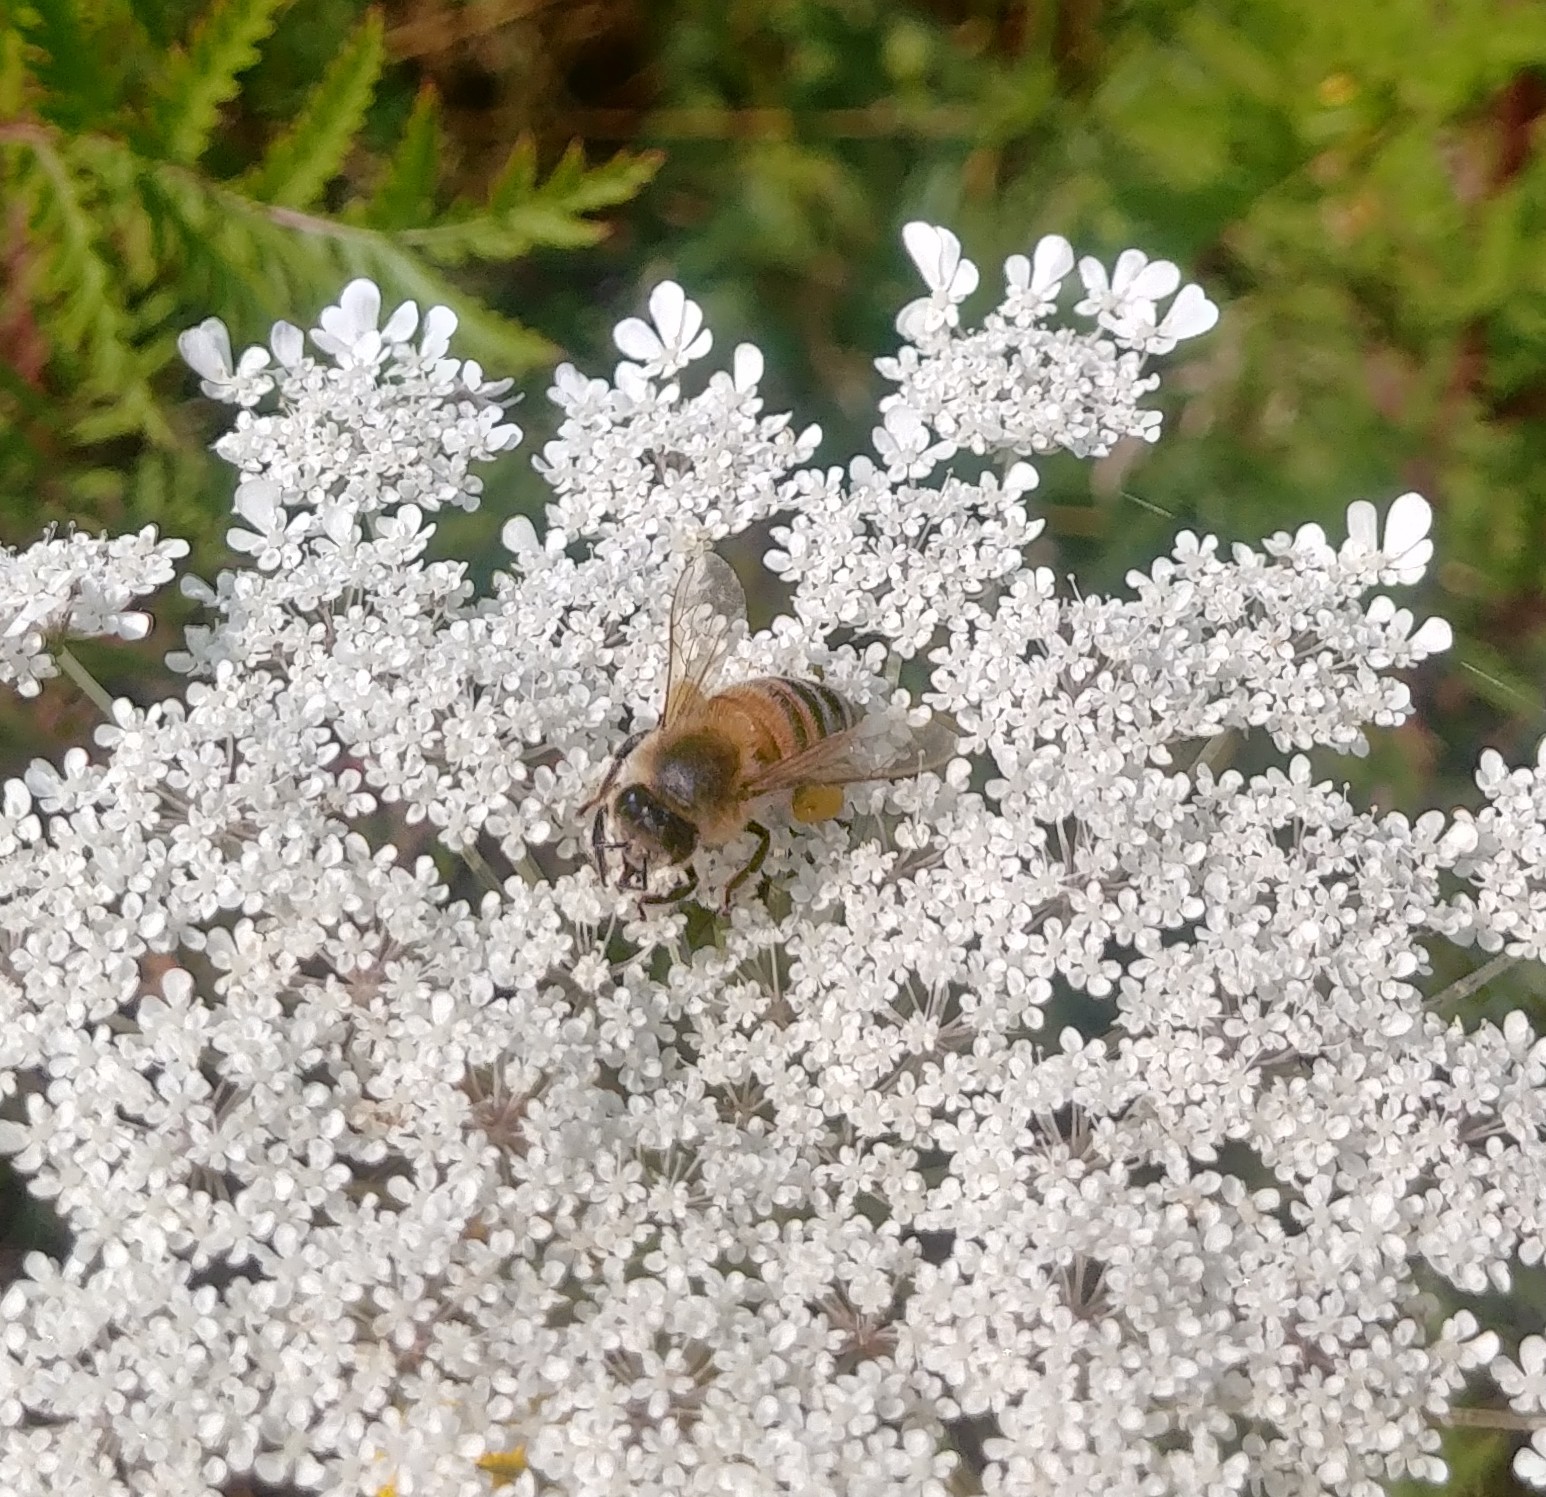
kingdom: Animalia
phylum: Arthropoda
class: Insecta
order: Hymenoptera
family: Apidae
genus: Apis
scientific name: Apis mellifera
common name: Honey bee
